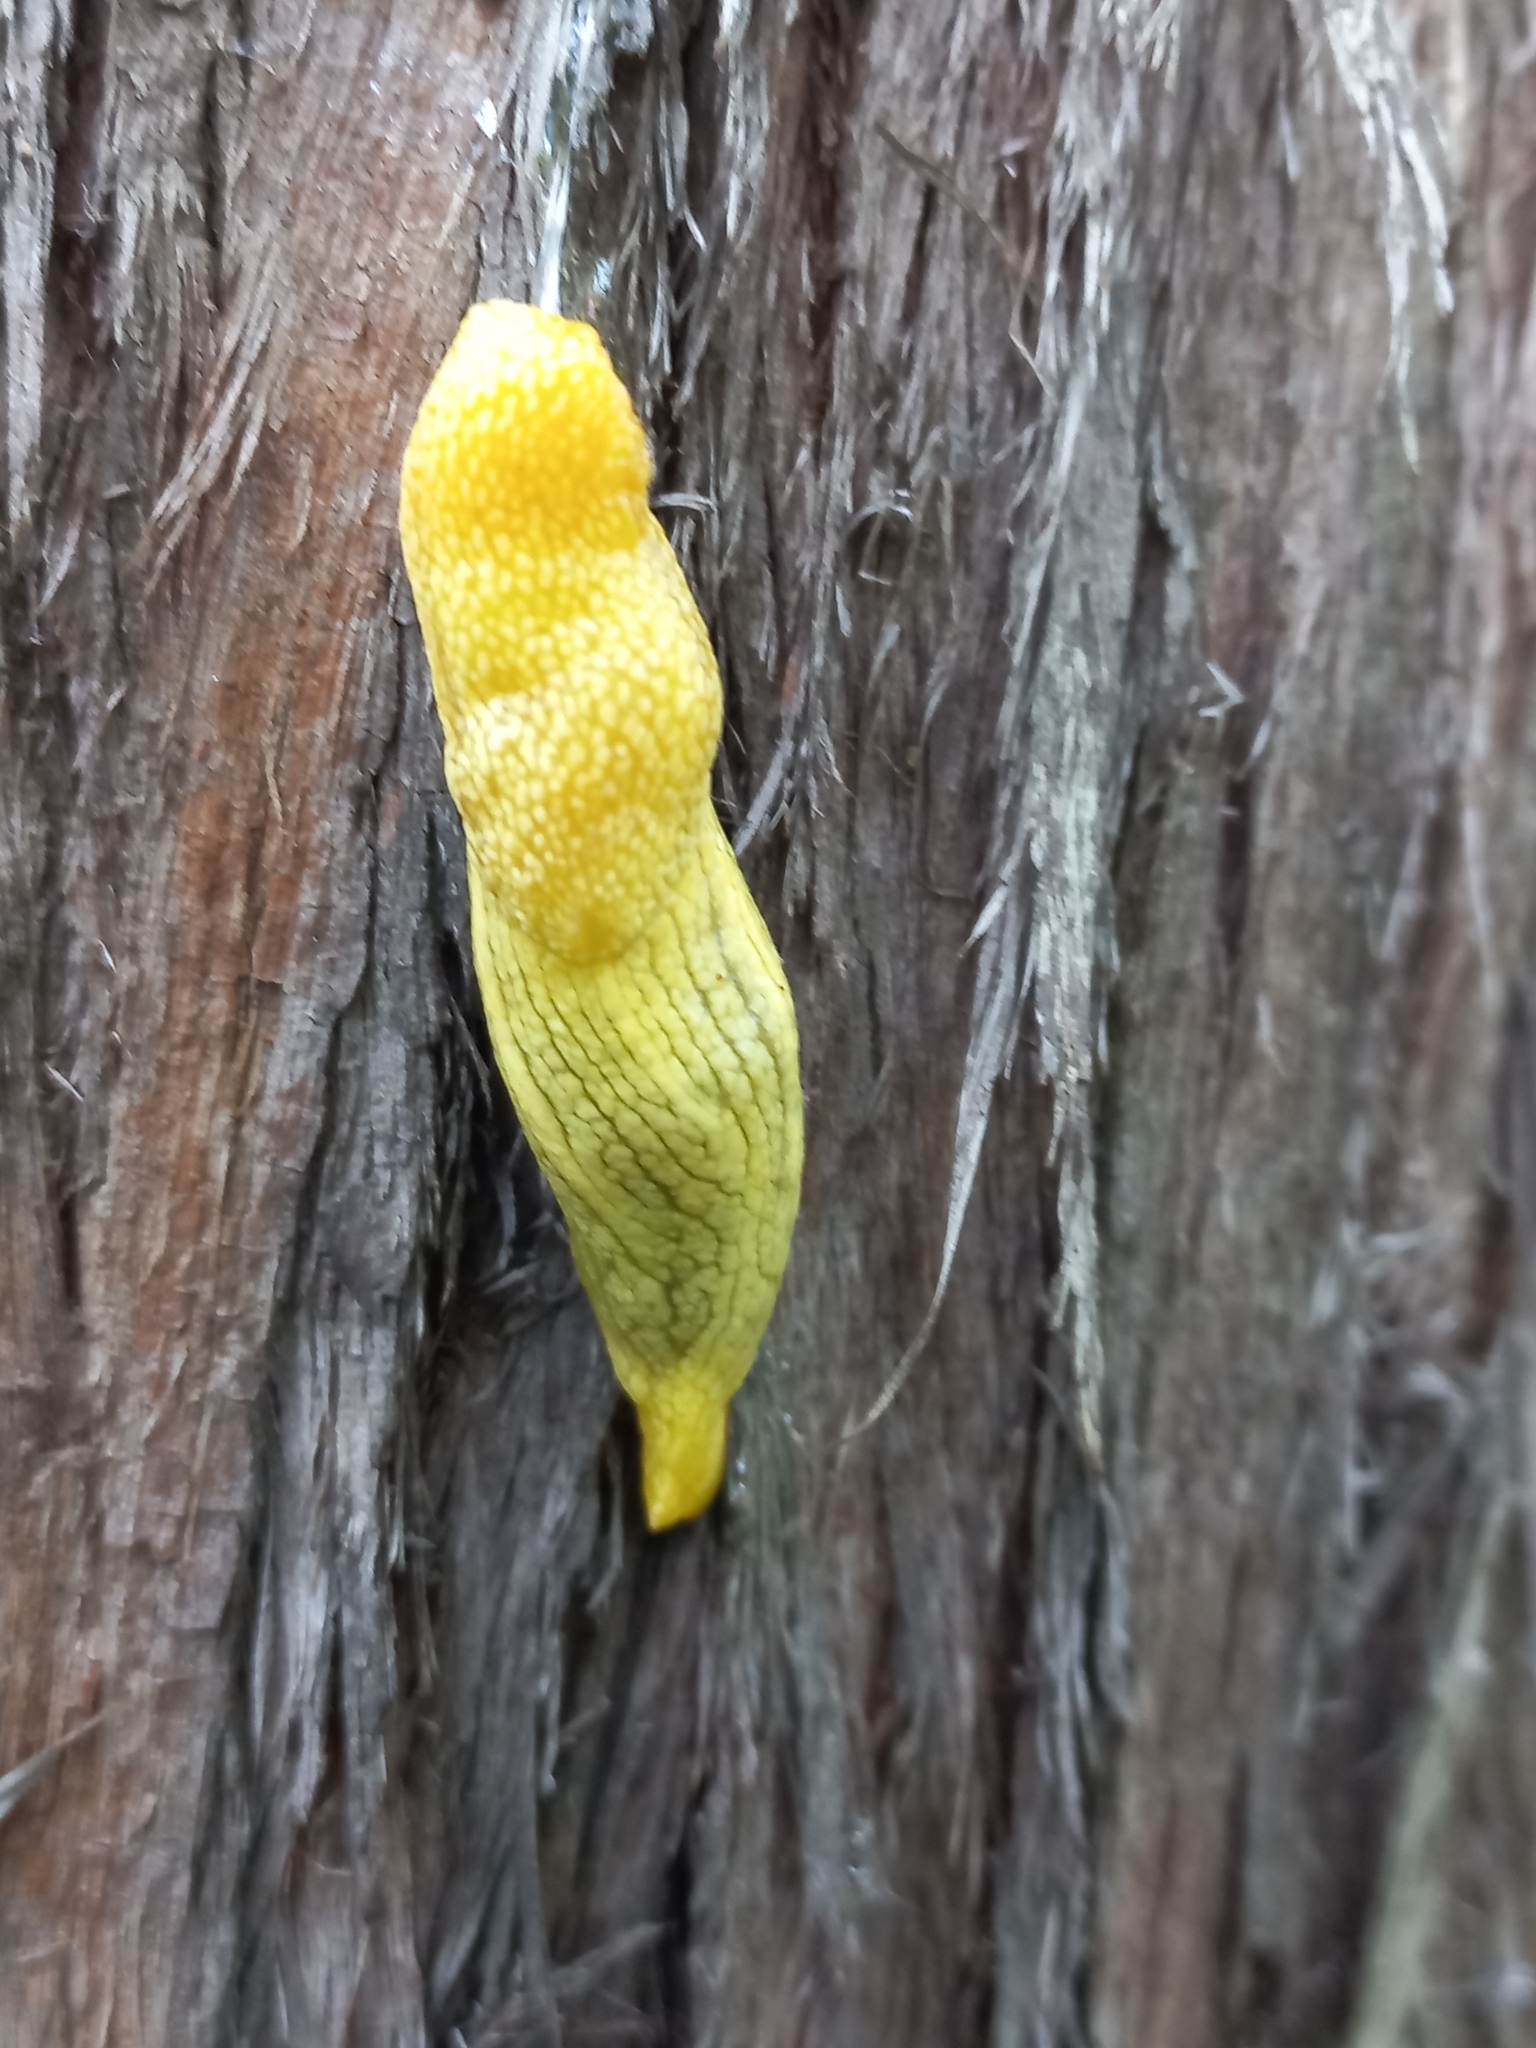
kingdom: Animalia
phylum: Mollusca
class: Gastropoda
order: Stylommatophora
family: Urocyclidae
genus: Elisolimax
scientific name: Elisolimax flavescens
